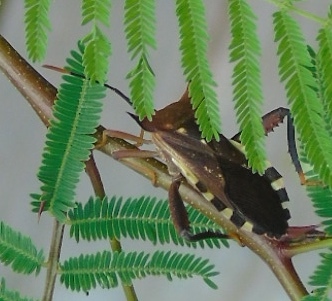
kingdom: Animalia
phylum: Arthropoda
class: Insecta
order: Hemiptera
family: Coreidae
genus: Mozena
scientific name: Mozena lunata
